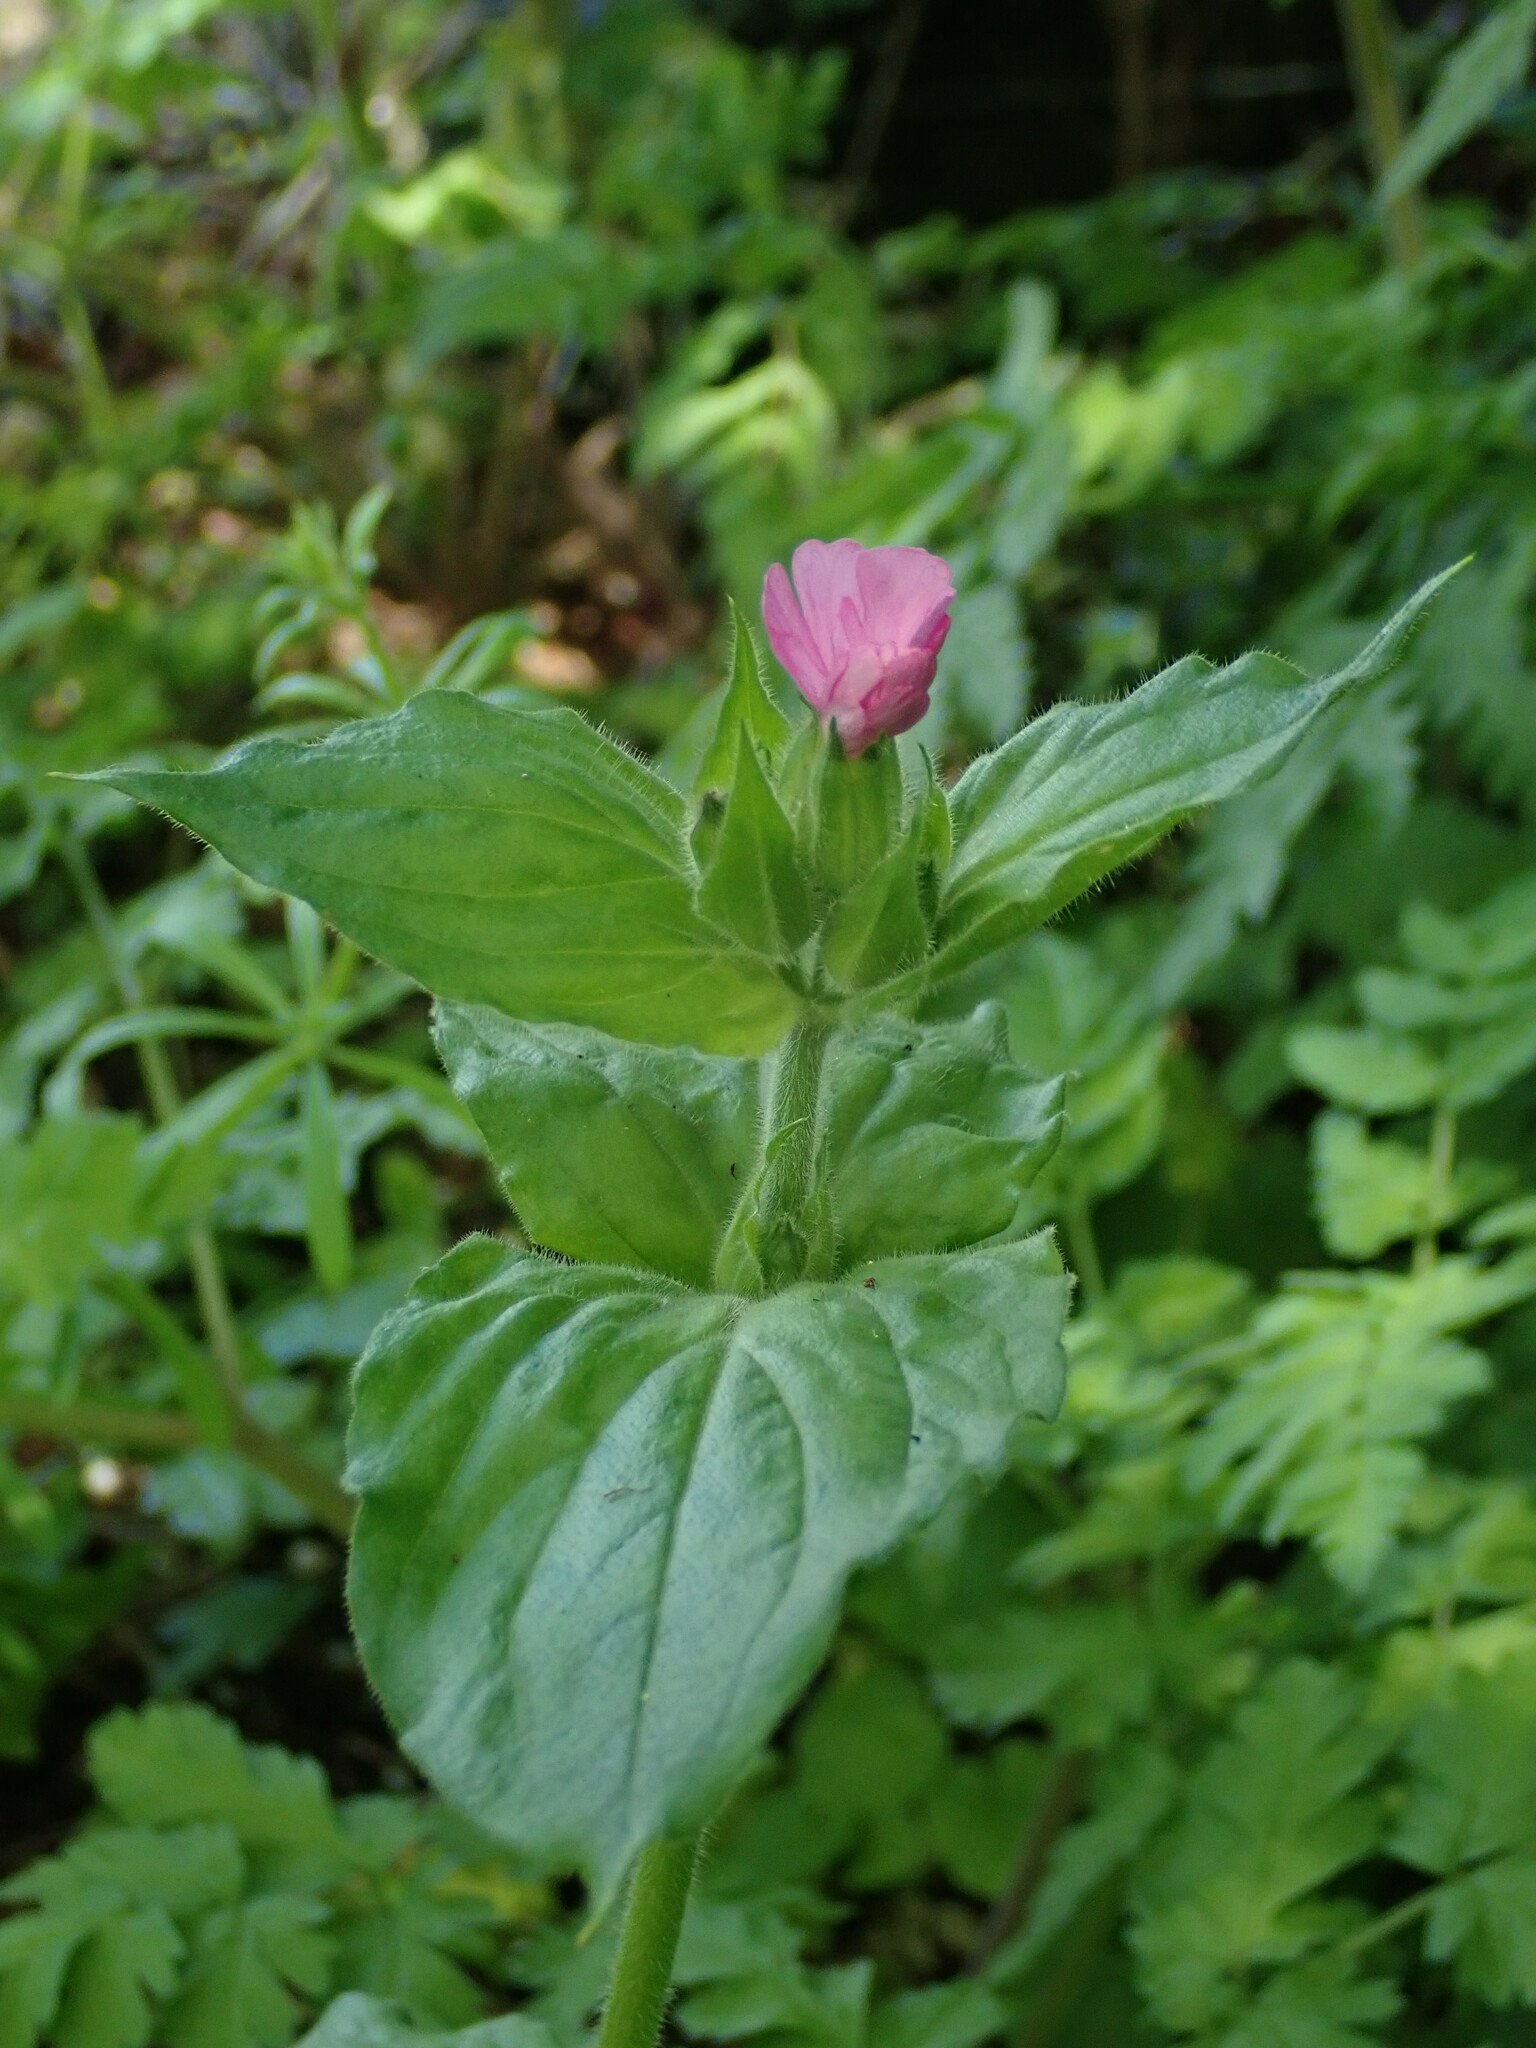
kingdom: Plantae
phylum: Tracheophyta
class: Magnoliopsida
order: Caryophyllales
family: Caryophyllaceae
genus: Silene
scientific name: Silene dioica
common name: Red campion
